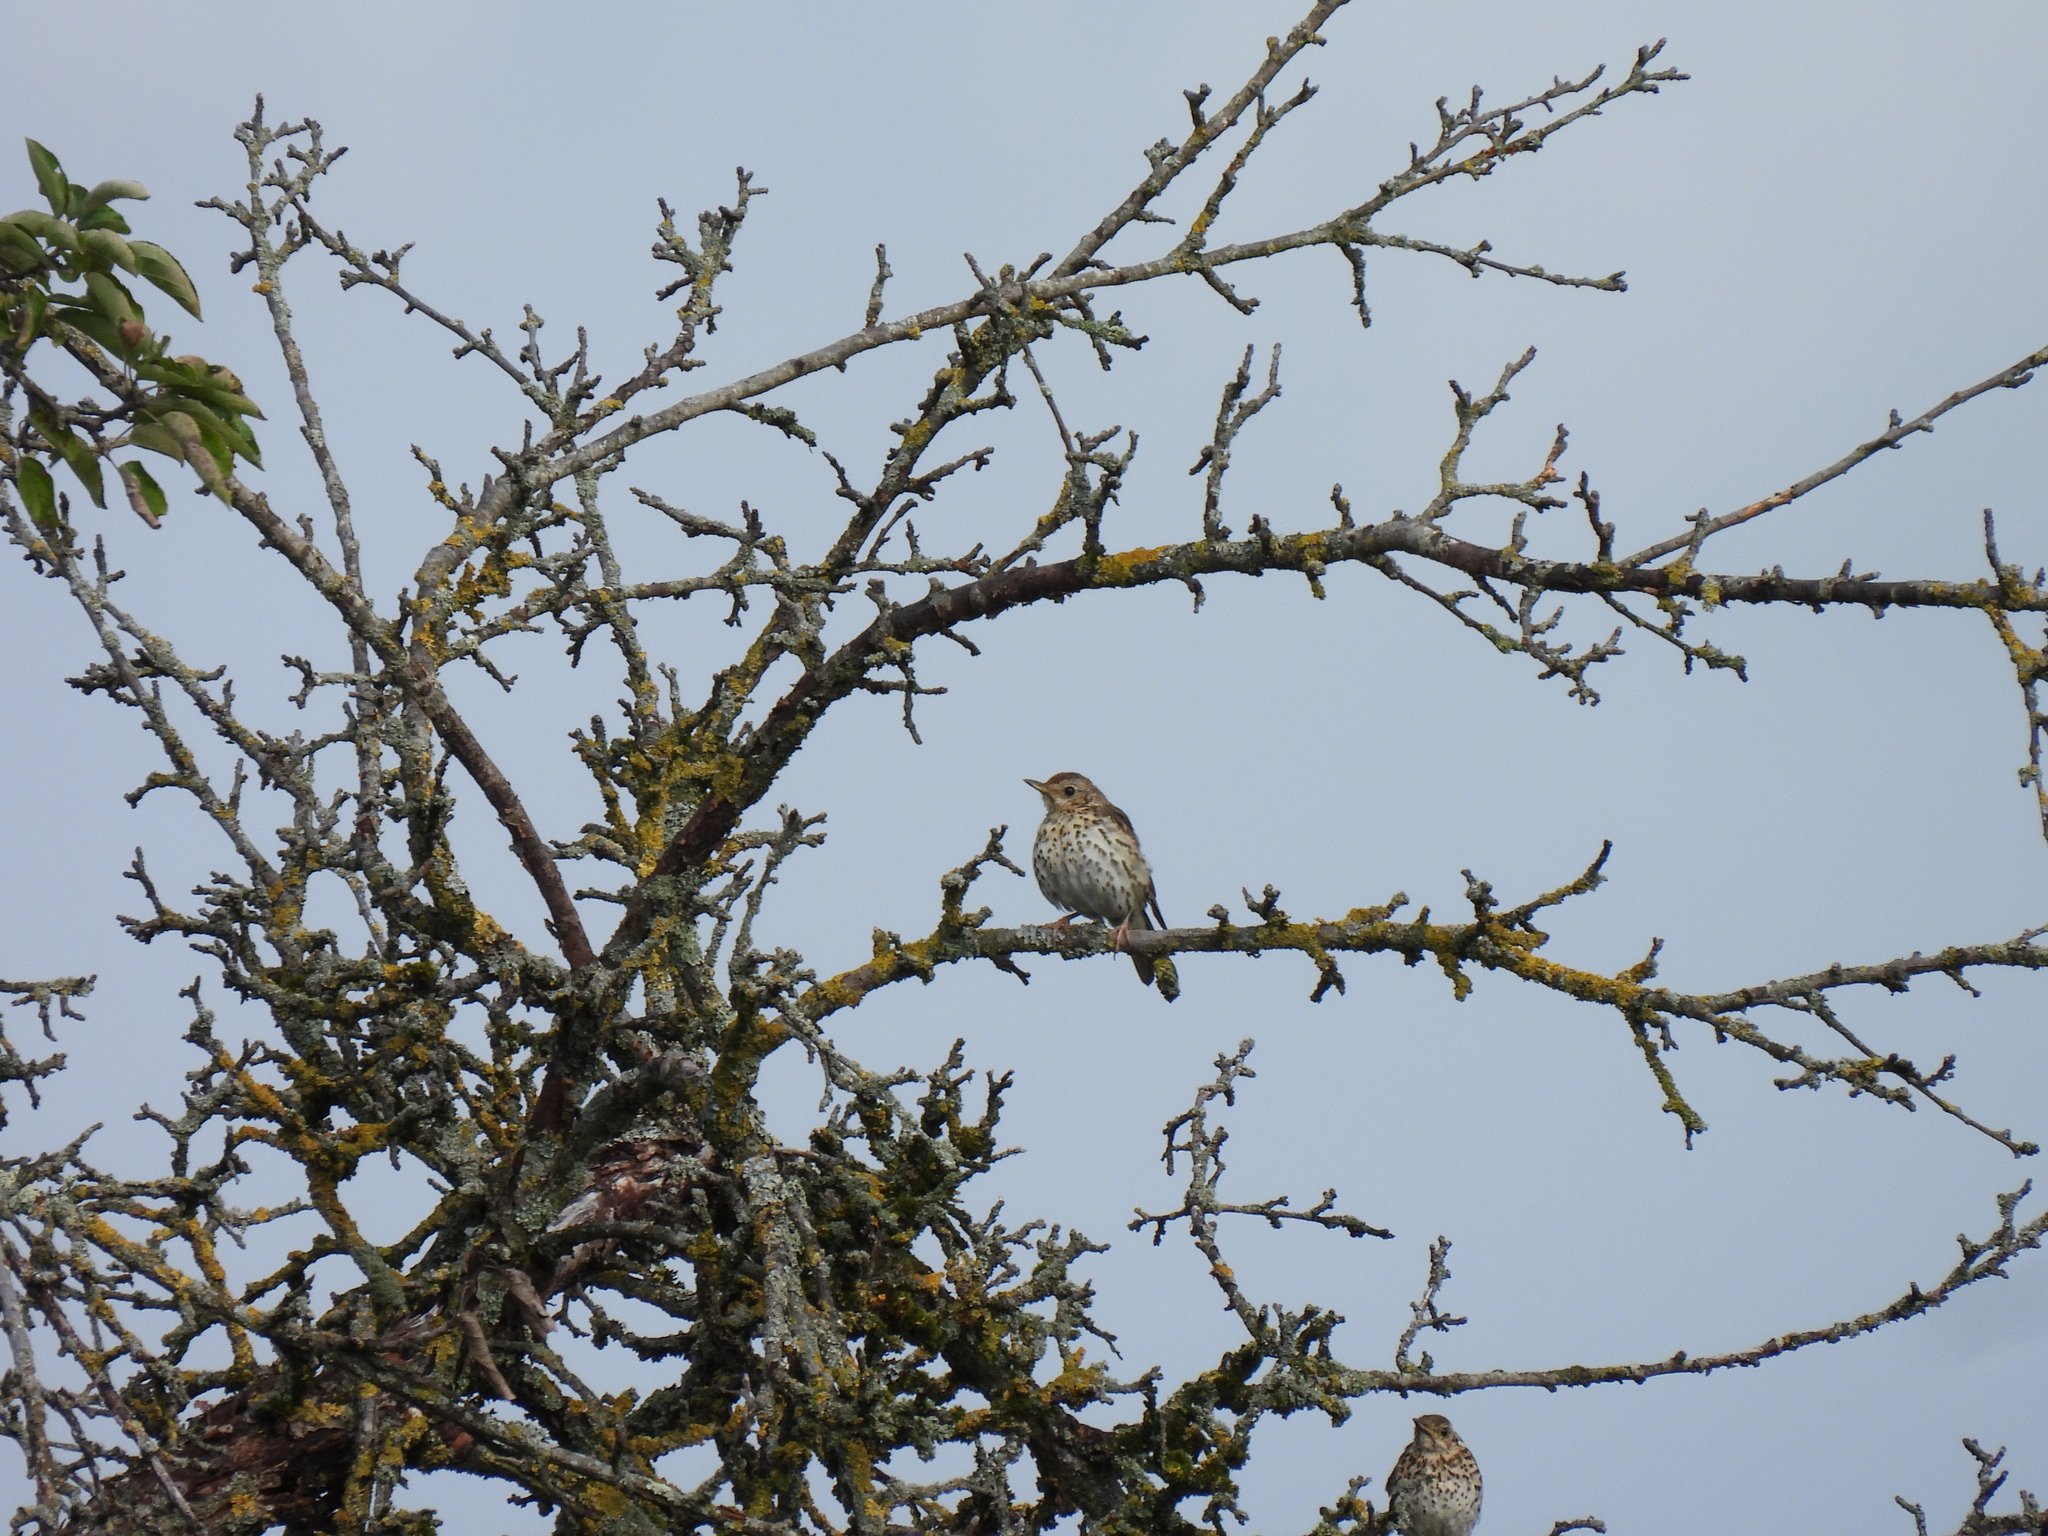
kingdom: Animalia
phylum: Chordata
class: Aves
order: Passeriformes
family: Turdidae
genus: Turdus
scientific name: Turdus philomelos
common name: Song thrush
